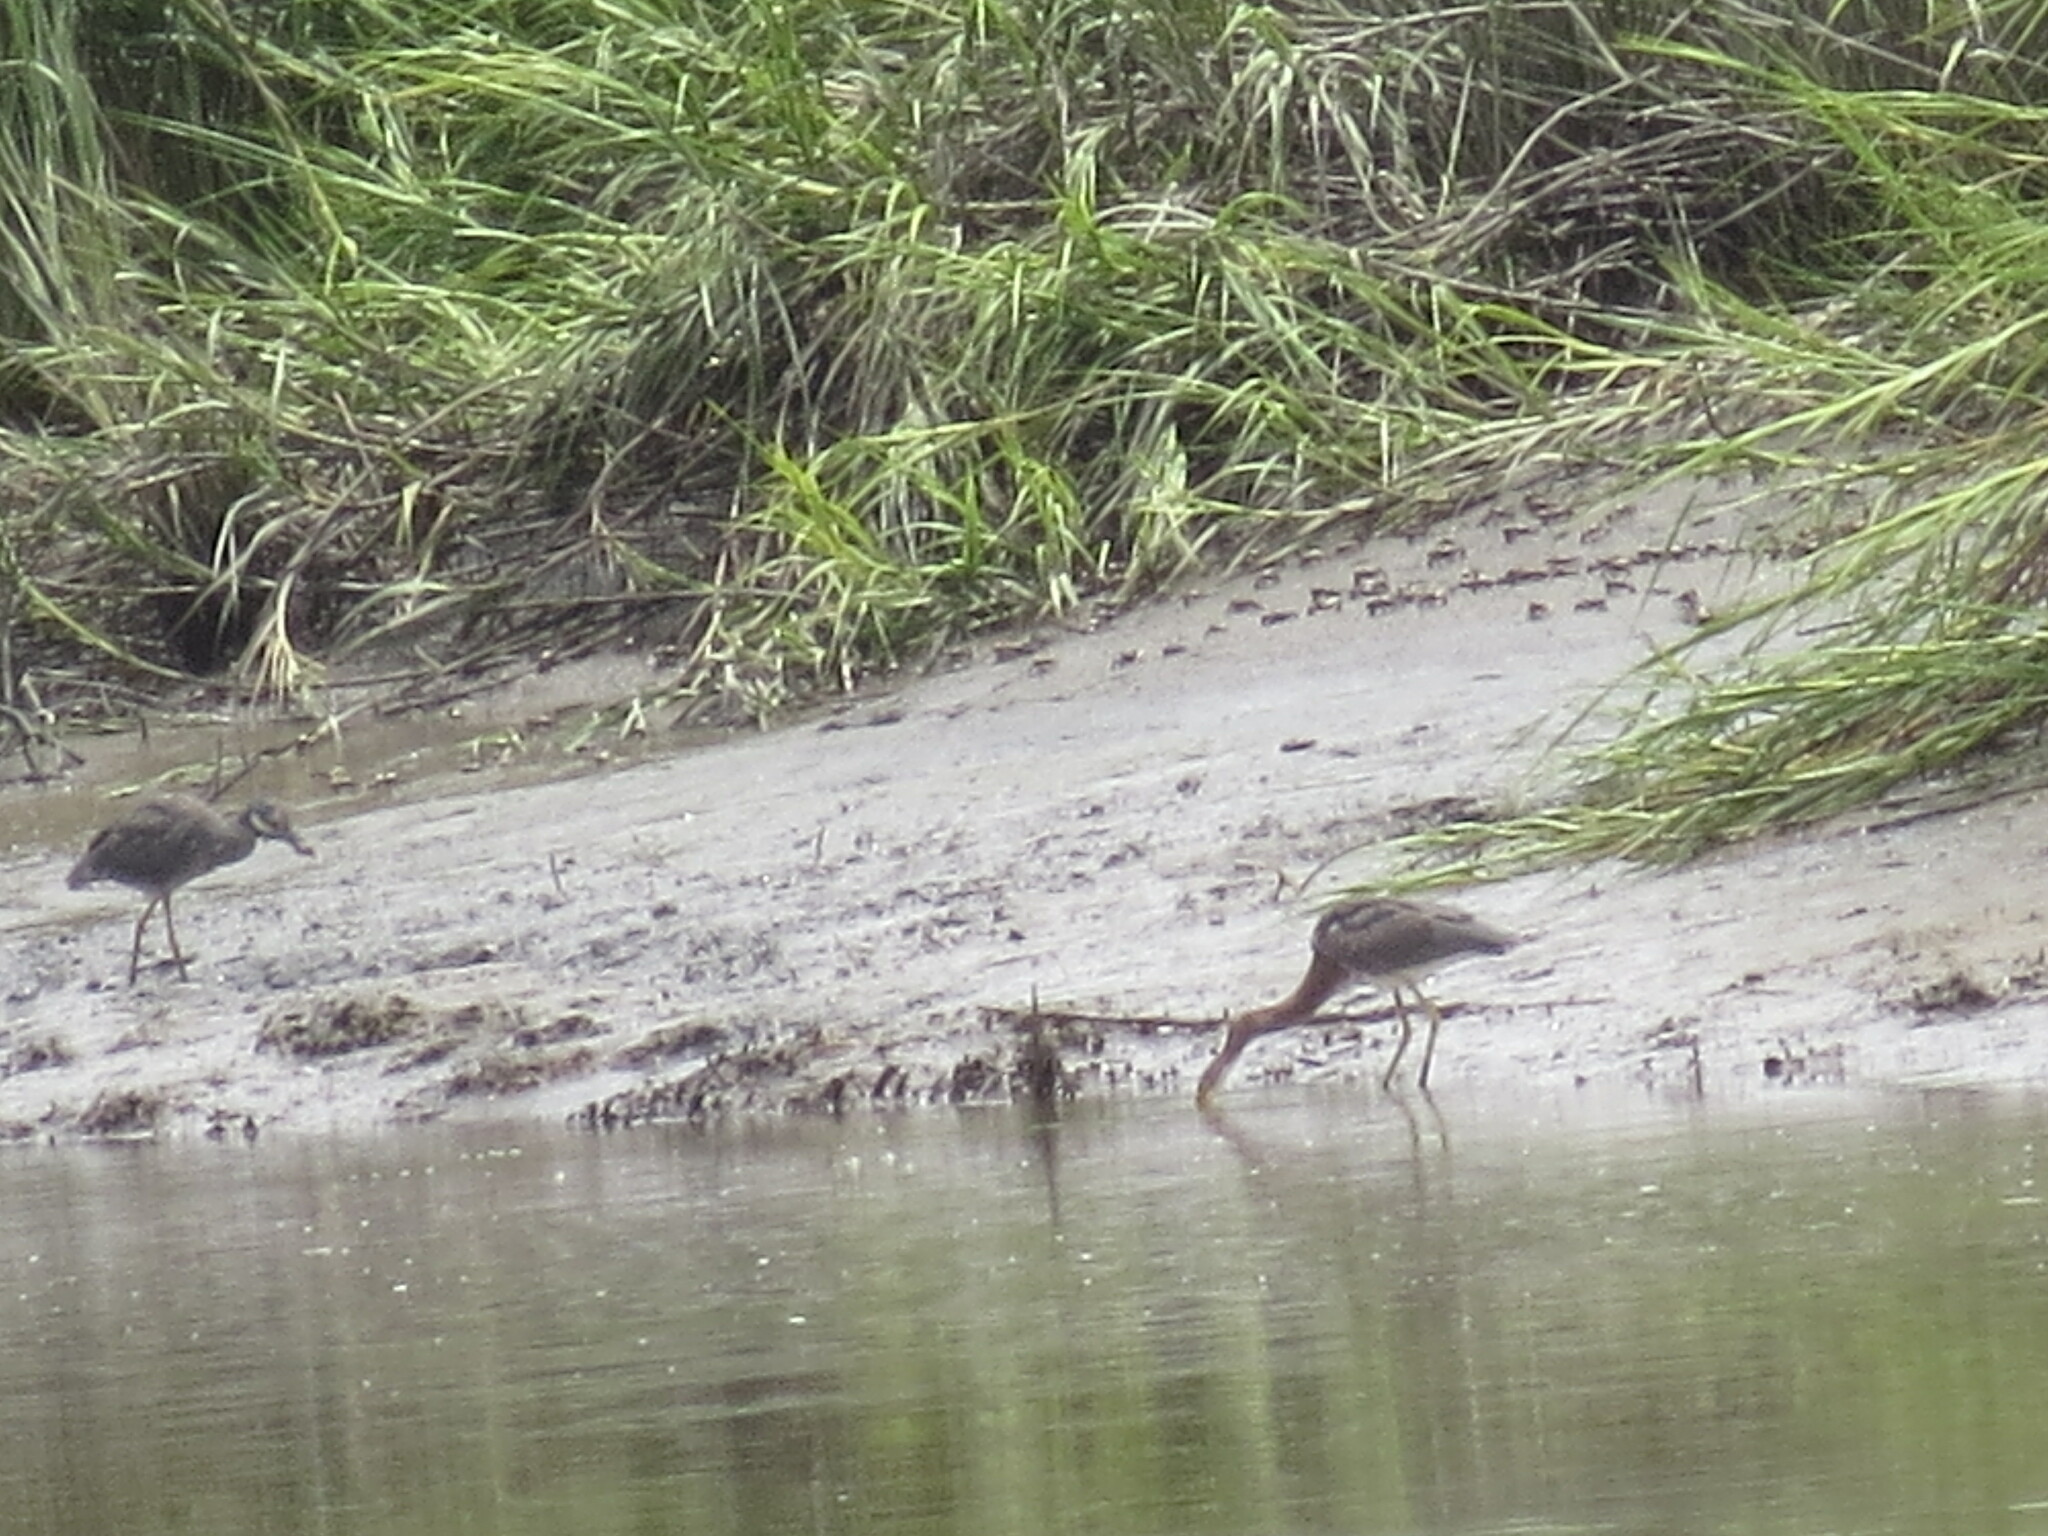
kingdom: Animalia
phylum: Chordata
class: Aves
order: Pelecaniformes
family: Ardeidae
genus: Nyctanassa
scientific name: Nyctanassa violacea
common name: Yellow-crowned night heron
